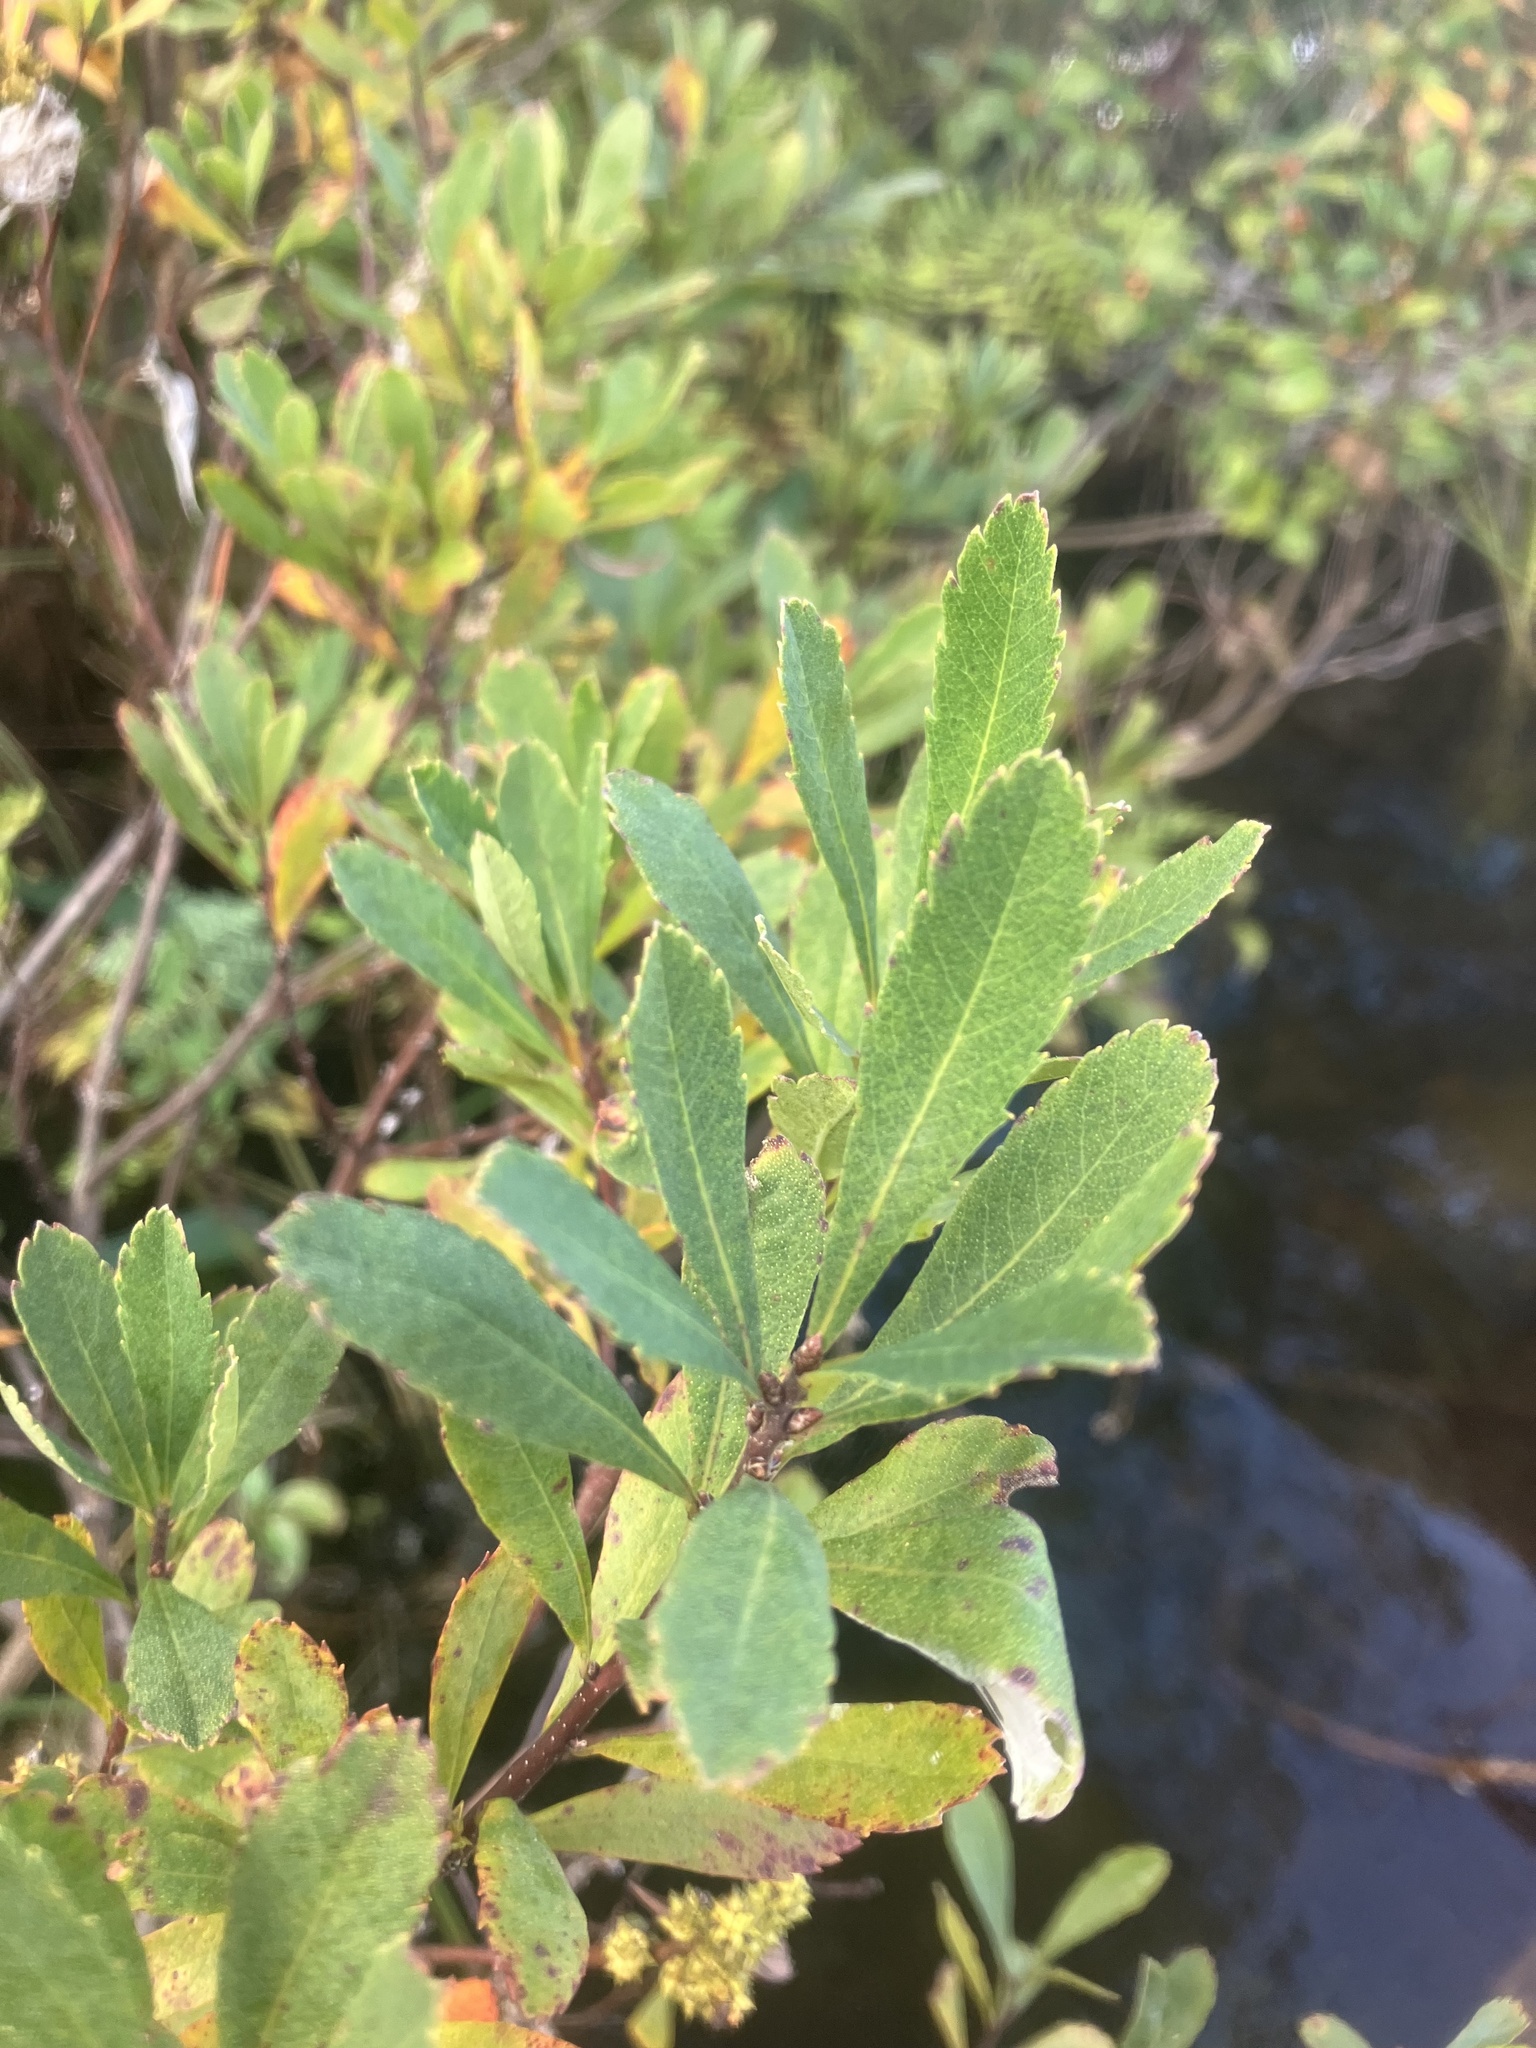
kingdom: Plantae
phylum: Tracheophyta
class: Magnoliopsida
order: Fagales
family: Myricaceae
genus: Myrica
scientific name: Myrica gale
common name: Sweet gale
